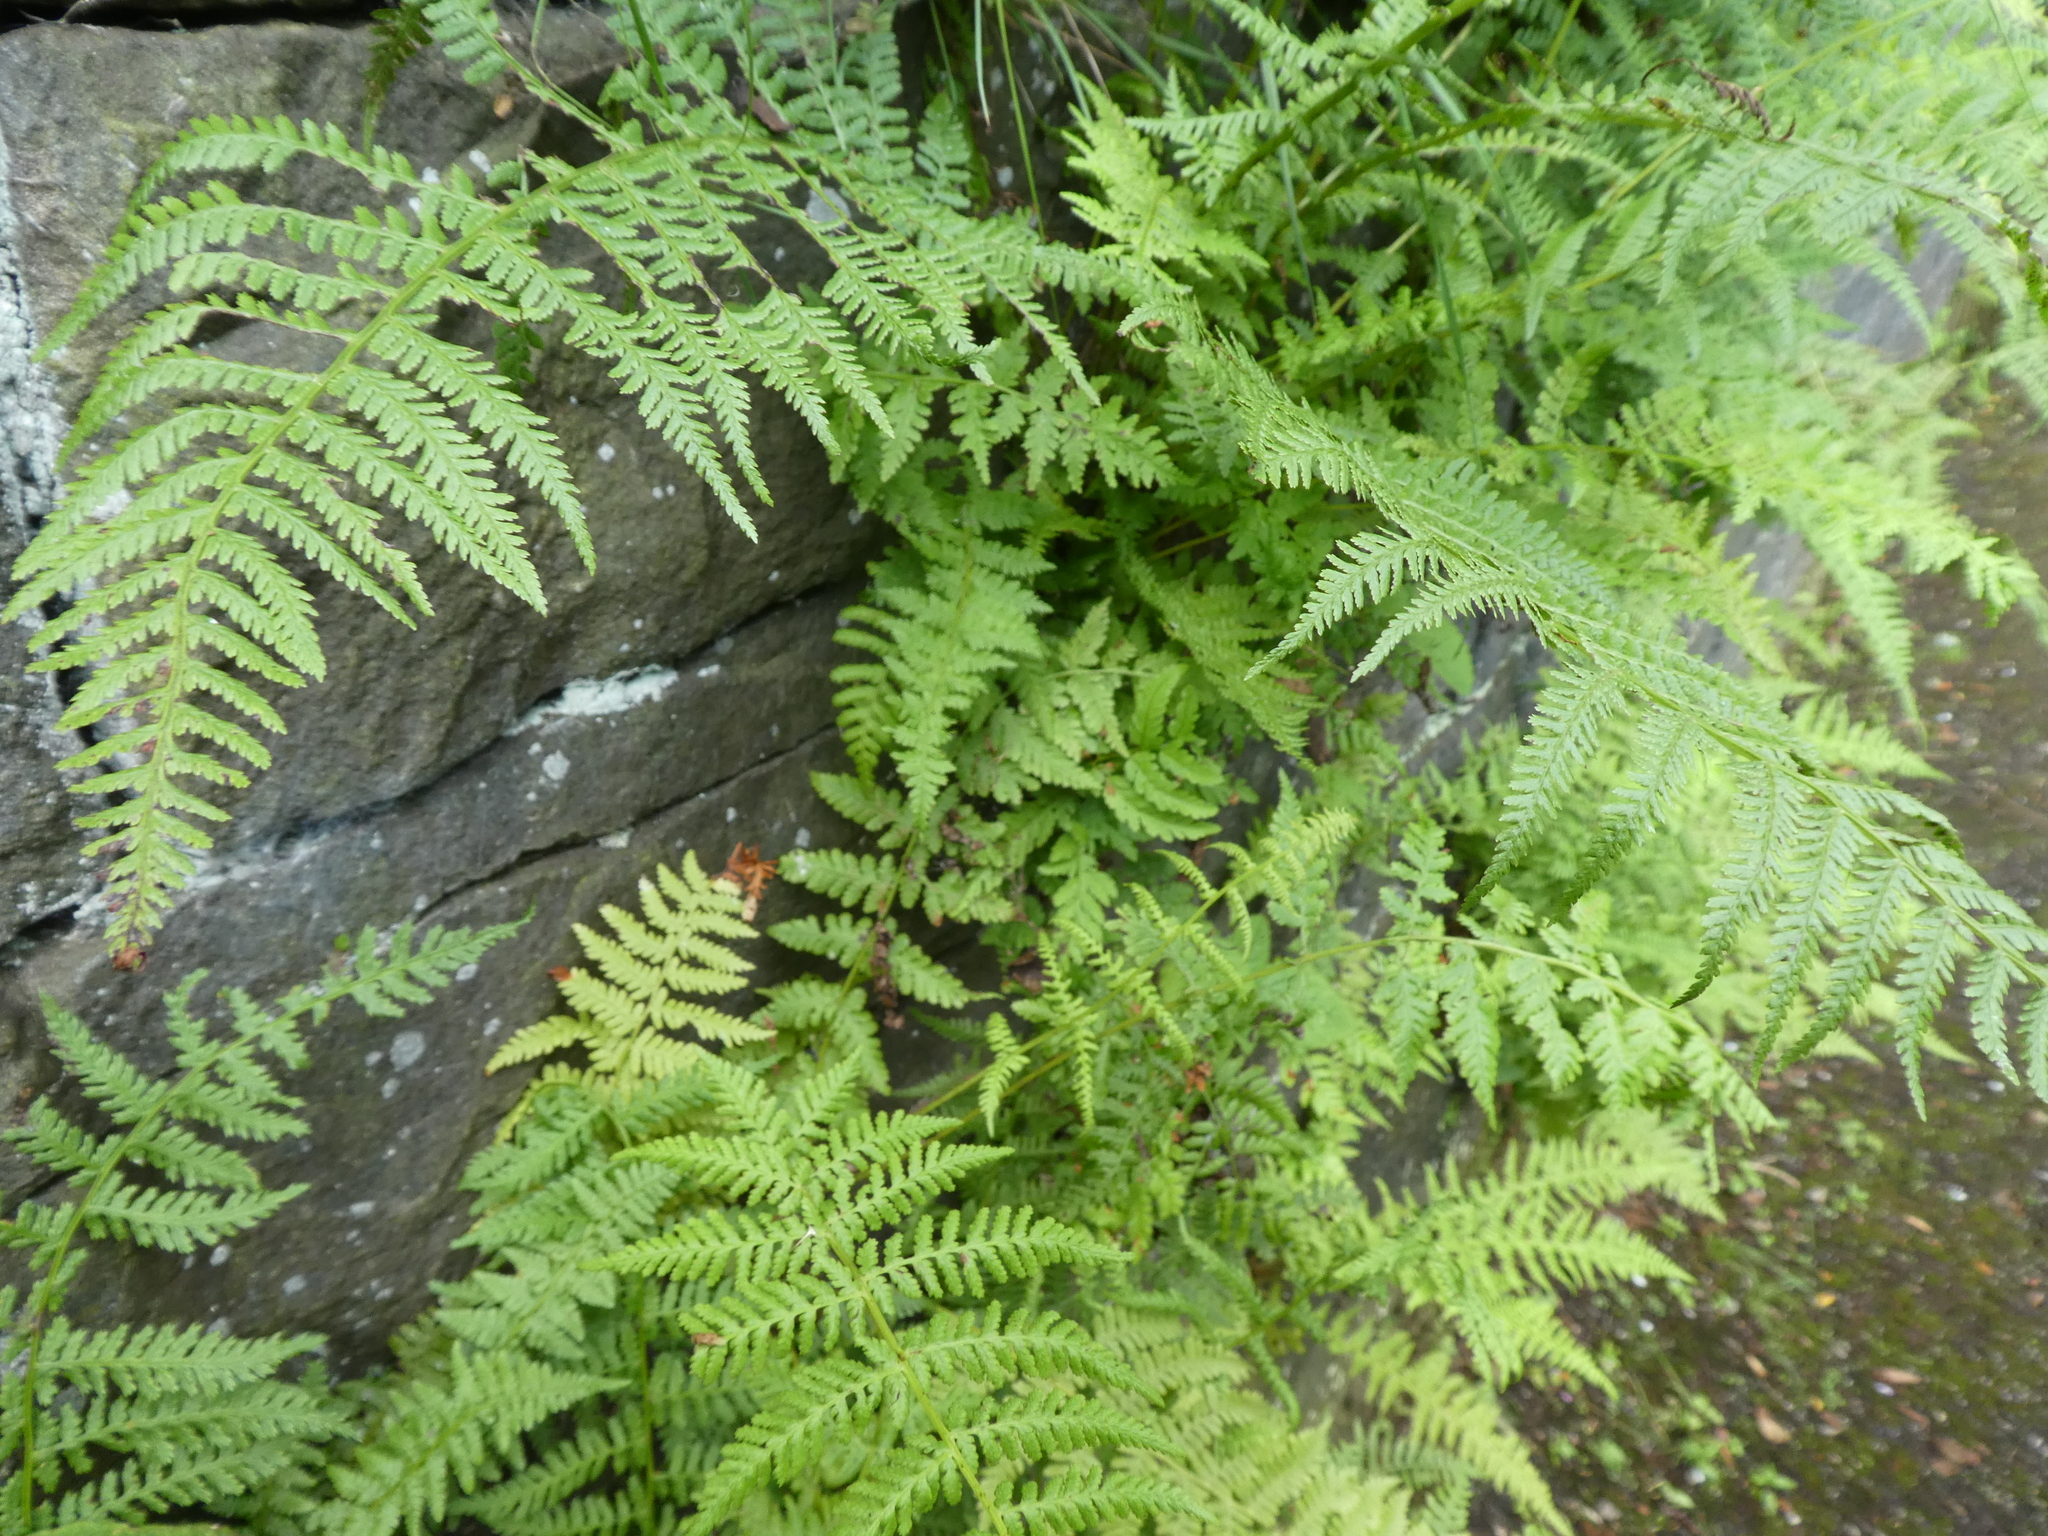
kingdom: Plantae
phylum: Tracheophyta
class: Polypodiopsida
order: Polypodiales
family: Athyriaceae
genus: Athyrium
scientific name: Athyrium filix-femina
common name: Lady fern
